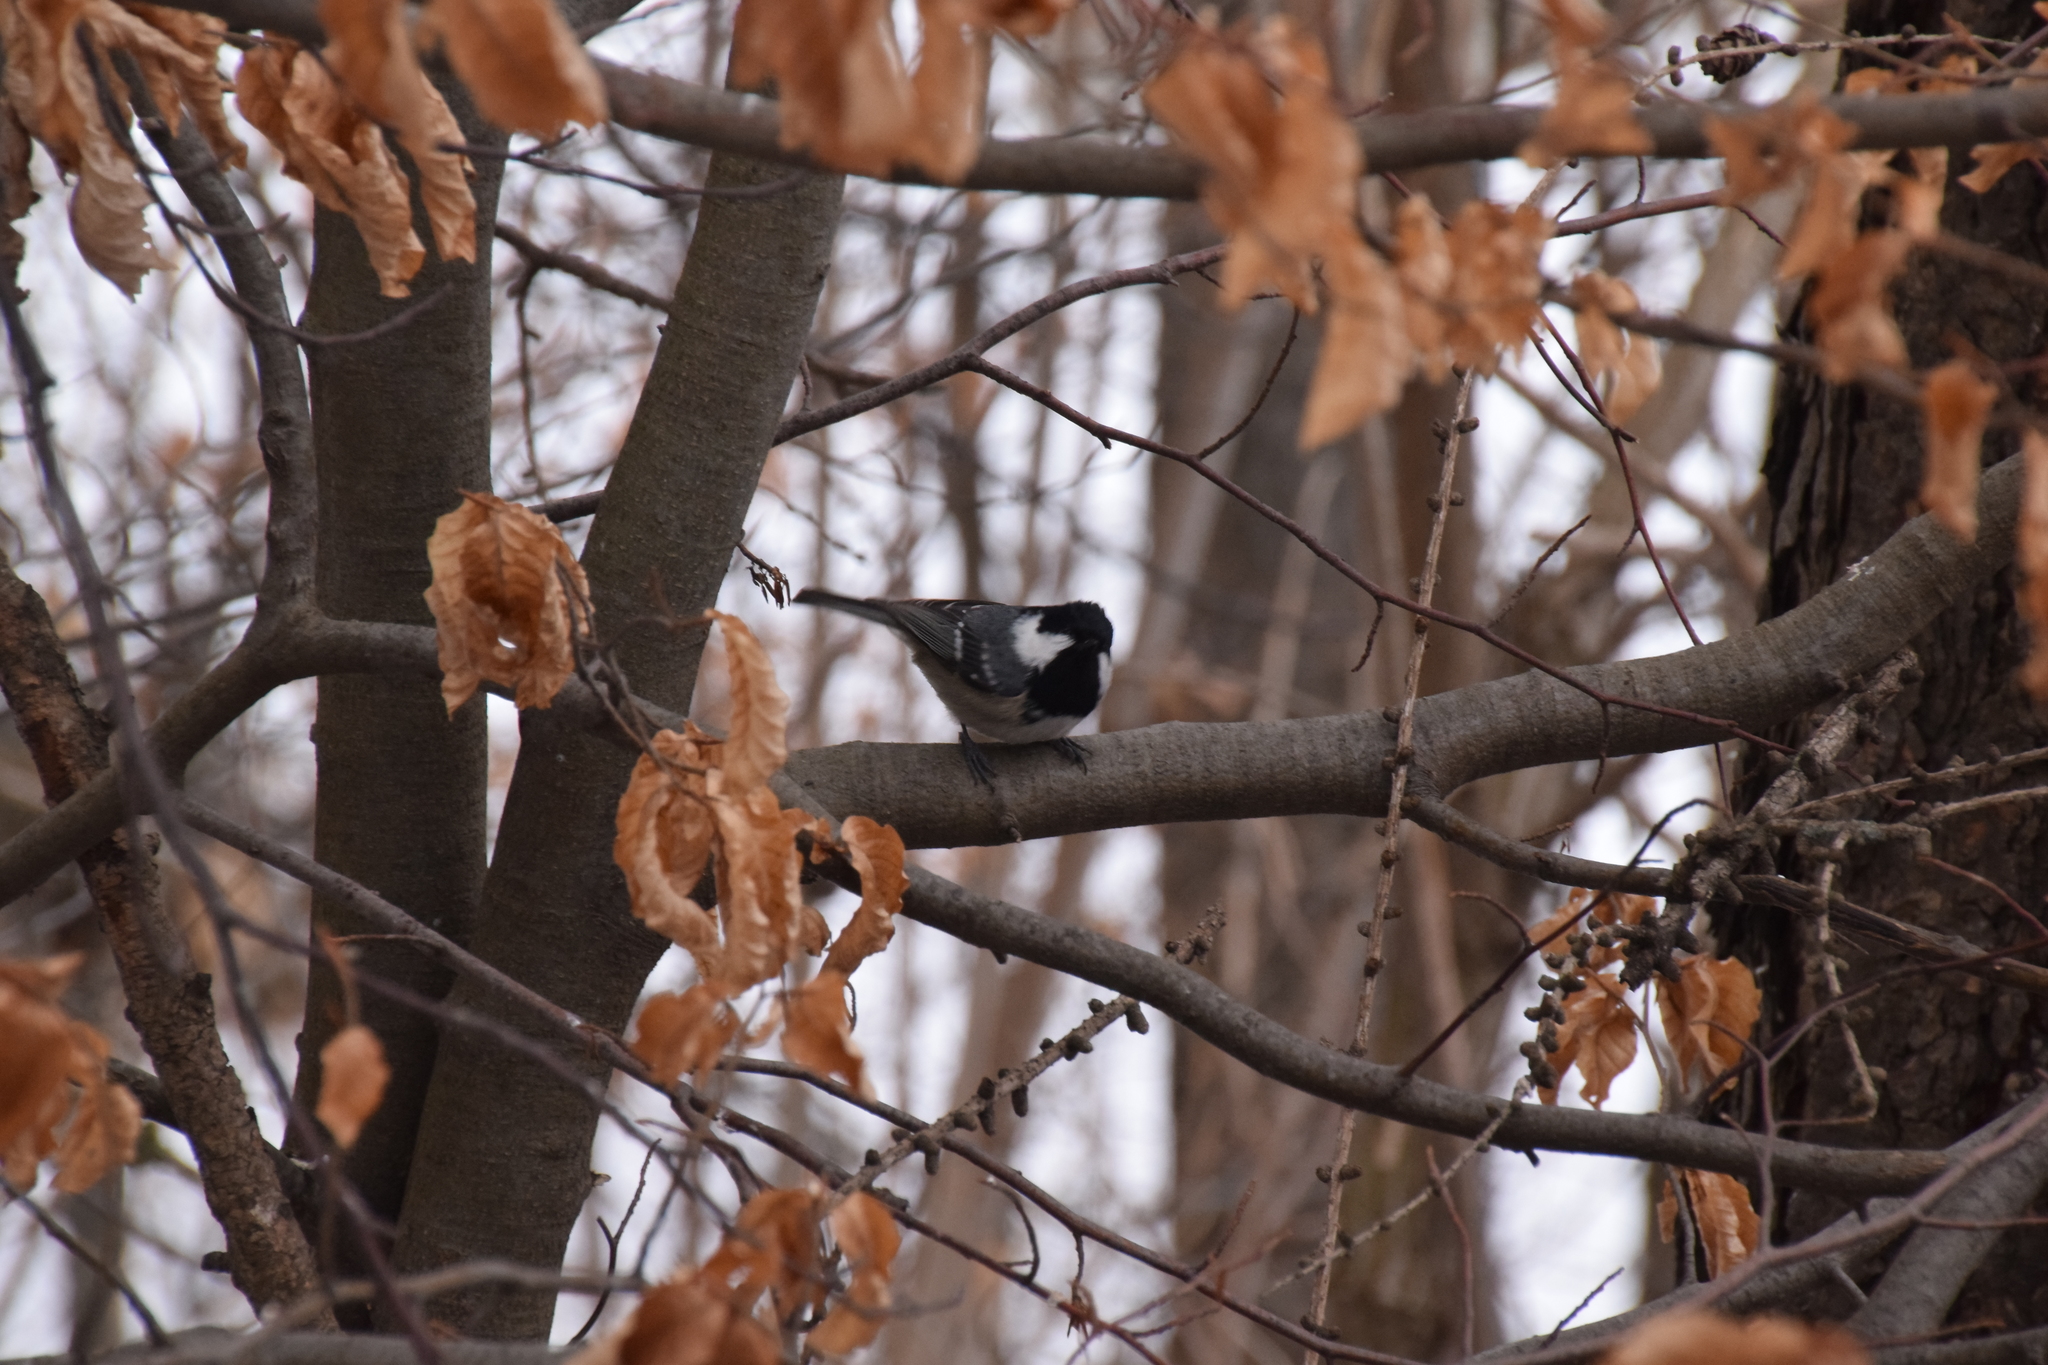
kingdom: Animalia
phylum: Chordata
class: Aves
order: Passeriformes
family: Paridae
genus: Periparus
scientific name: Periparus ater
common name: Coal tit
